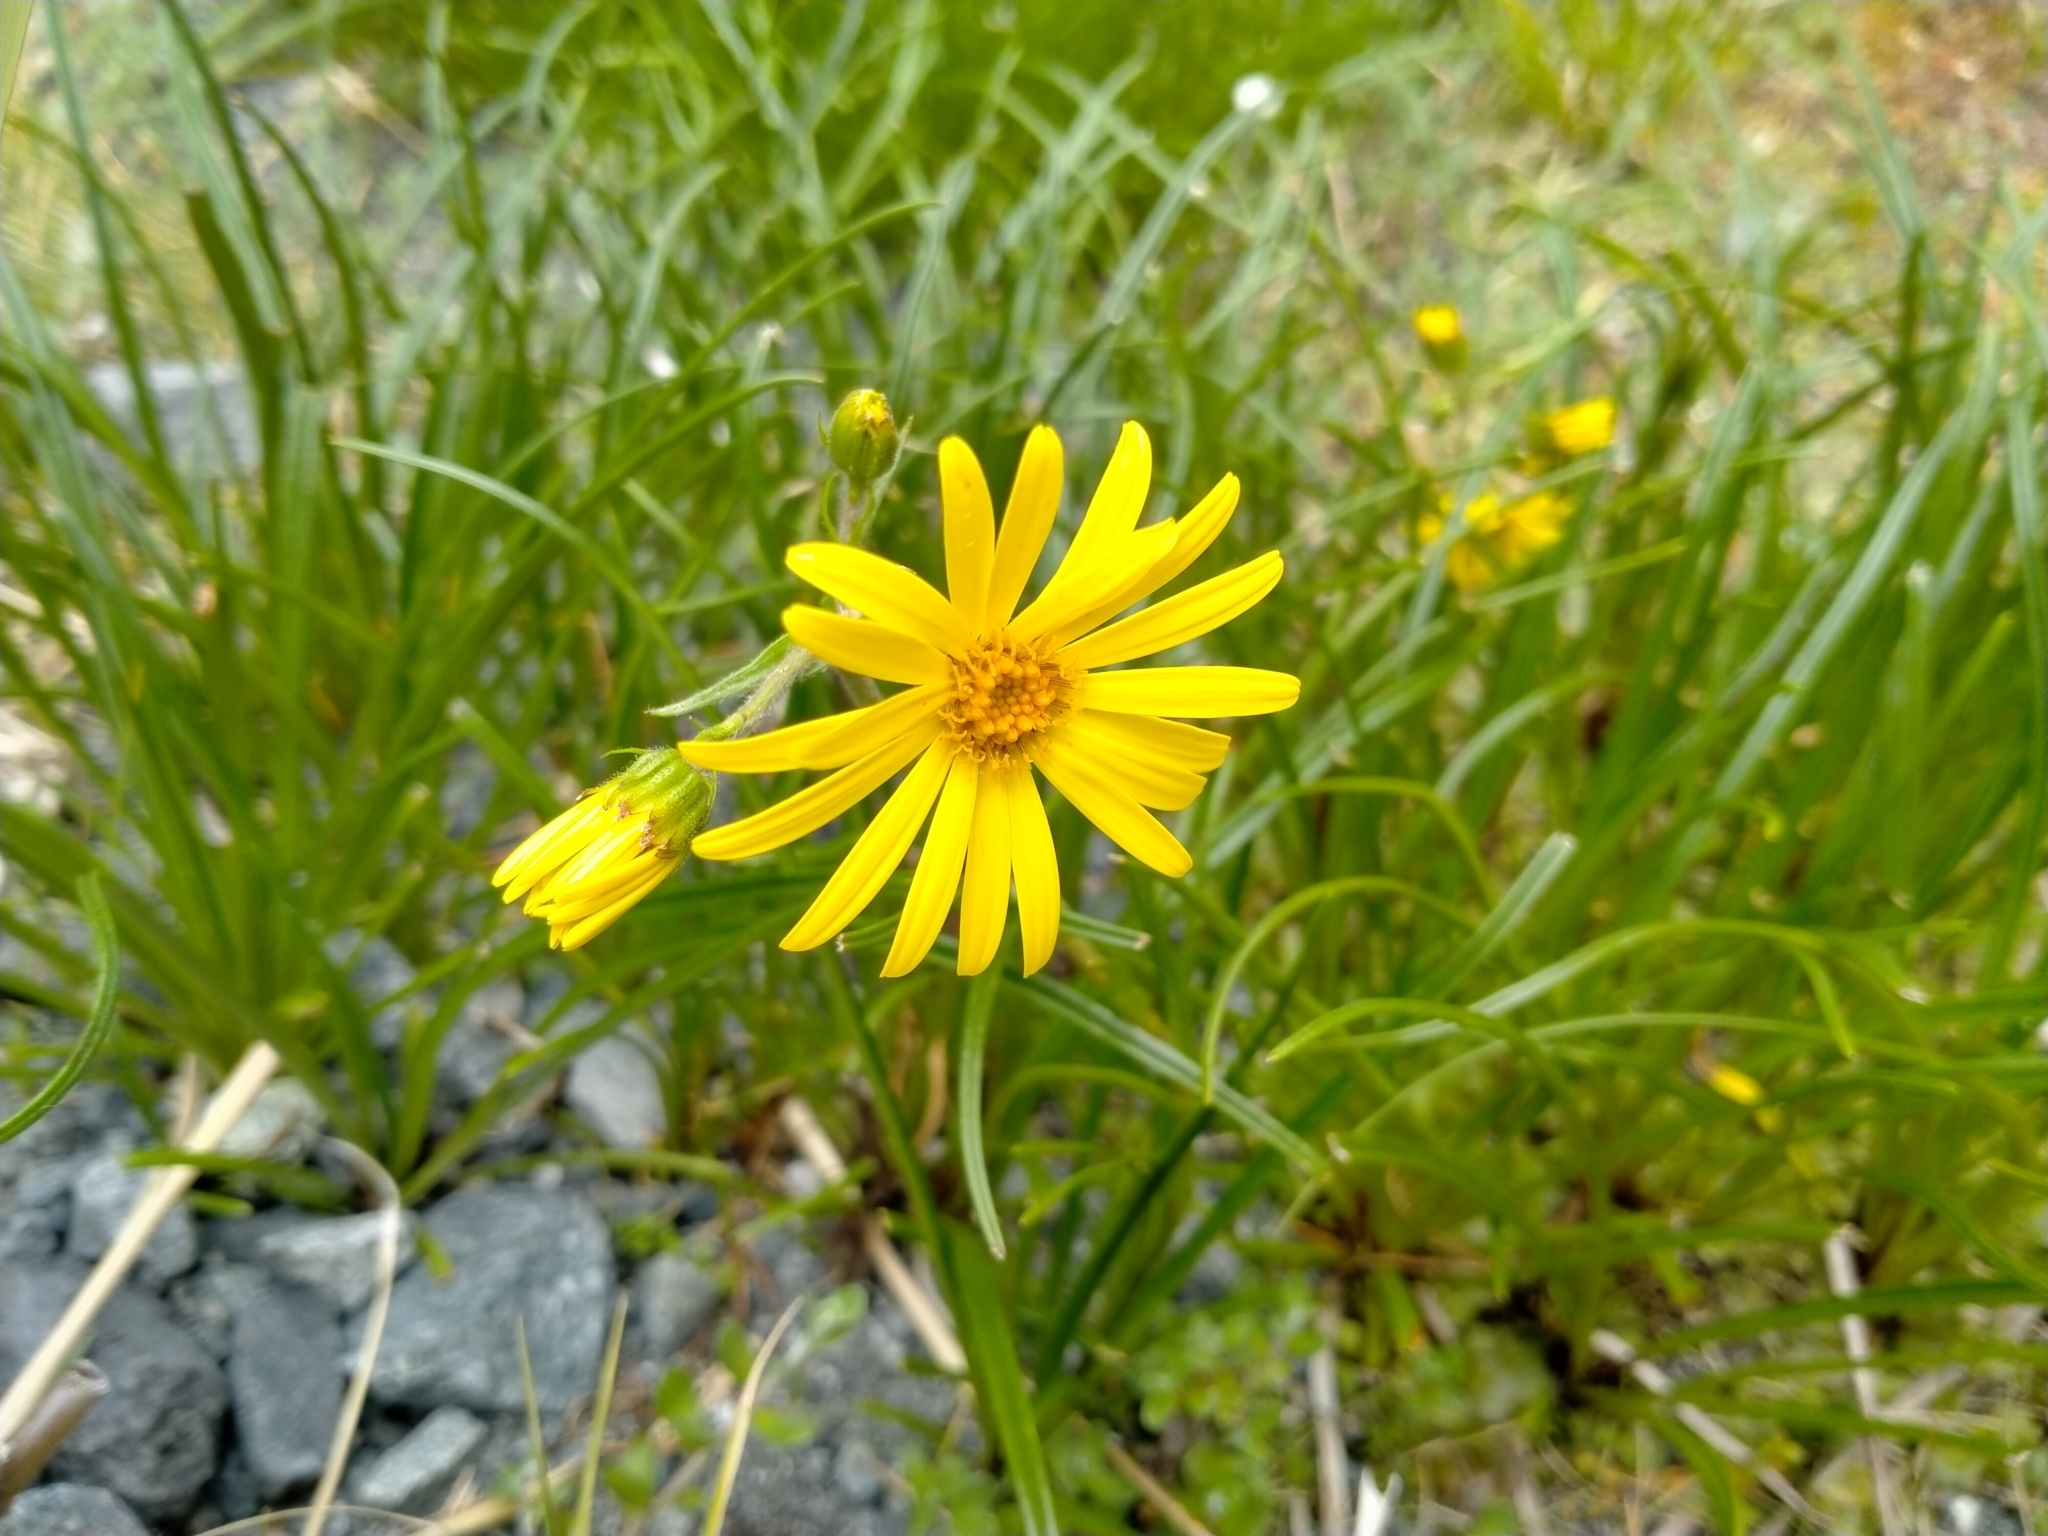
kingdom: Plantae
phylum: Tracheophyta
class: Magnoliopsida
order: Asterales
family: Asteraceae
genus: Dolichoglottis
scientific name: Dolichoglottis lyallii
